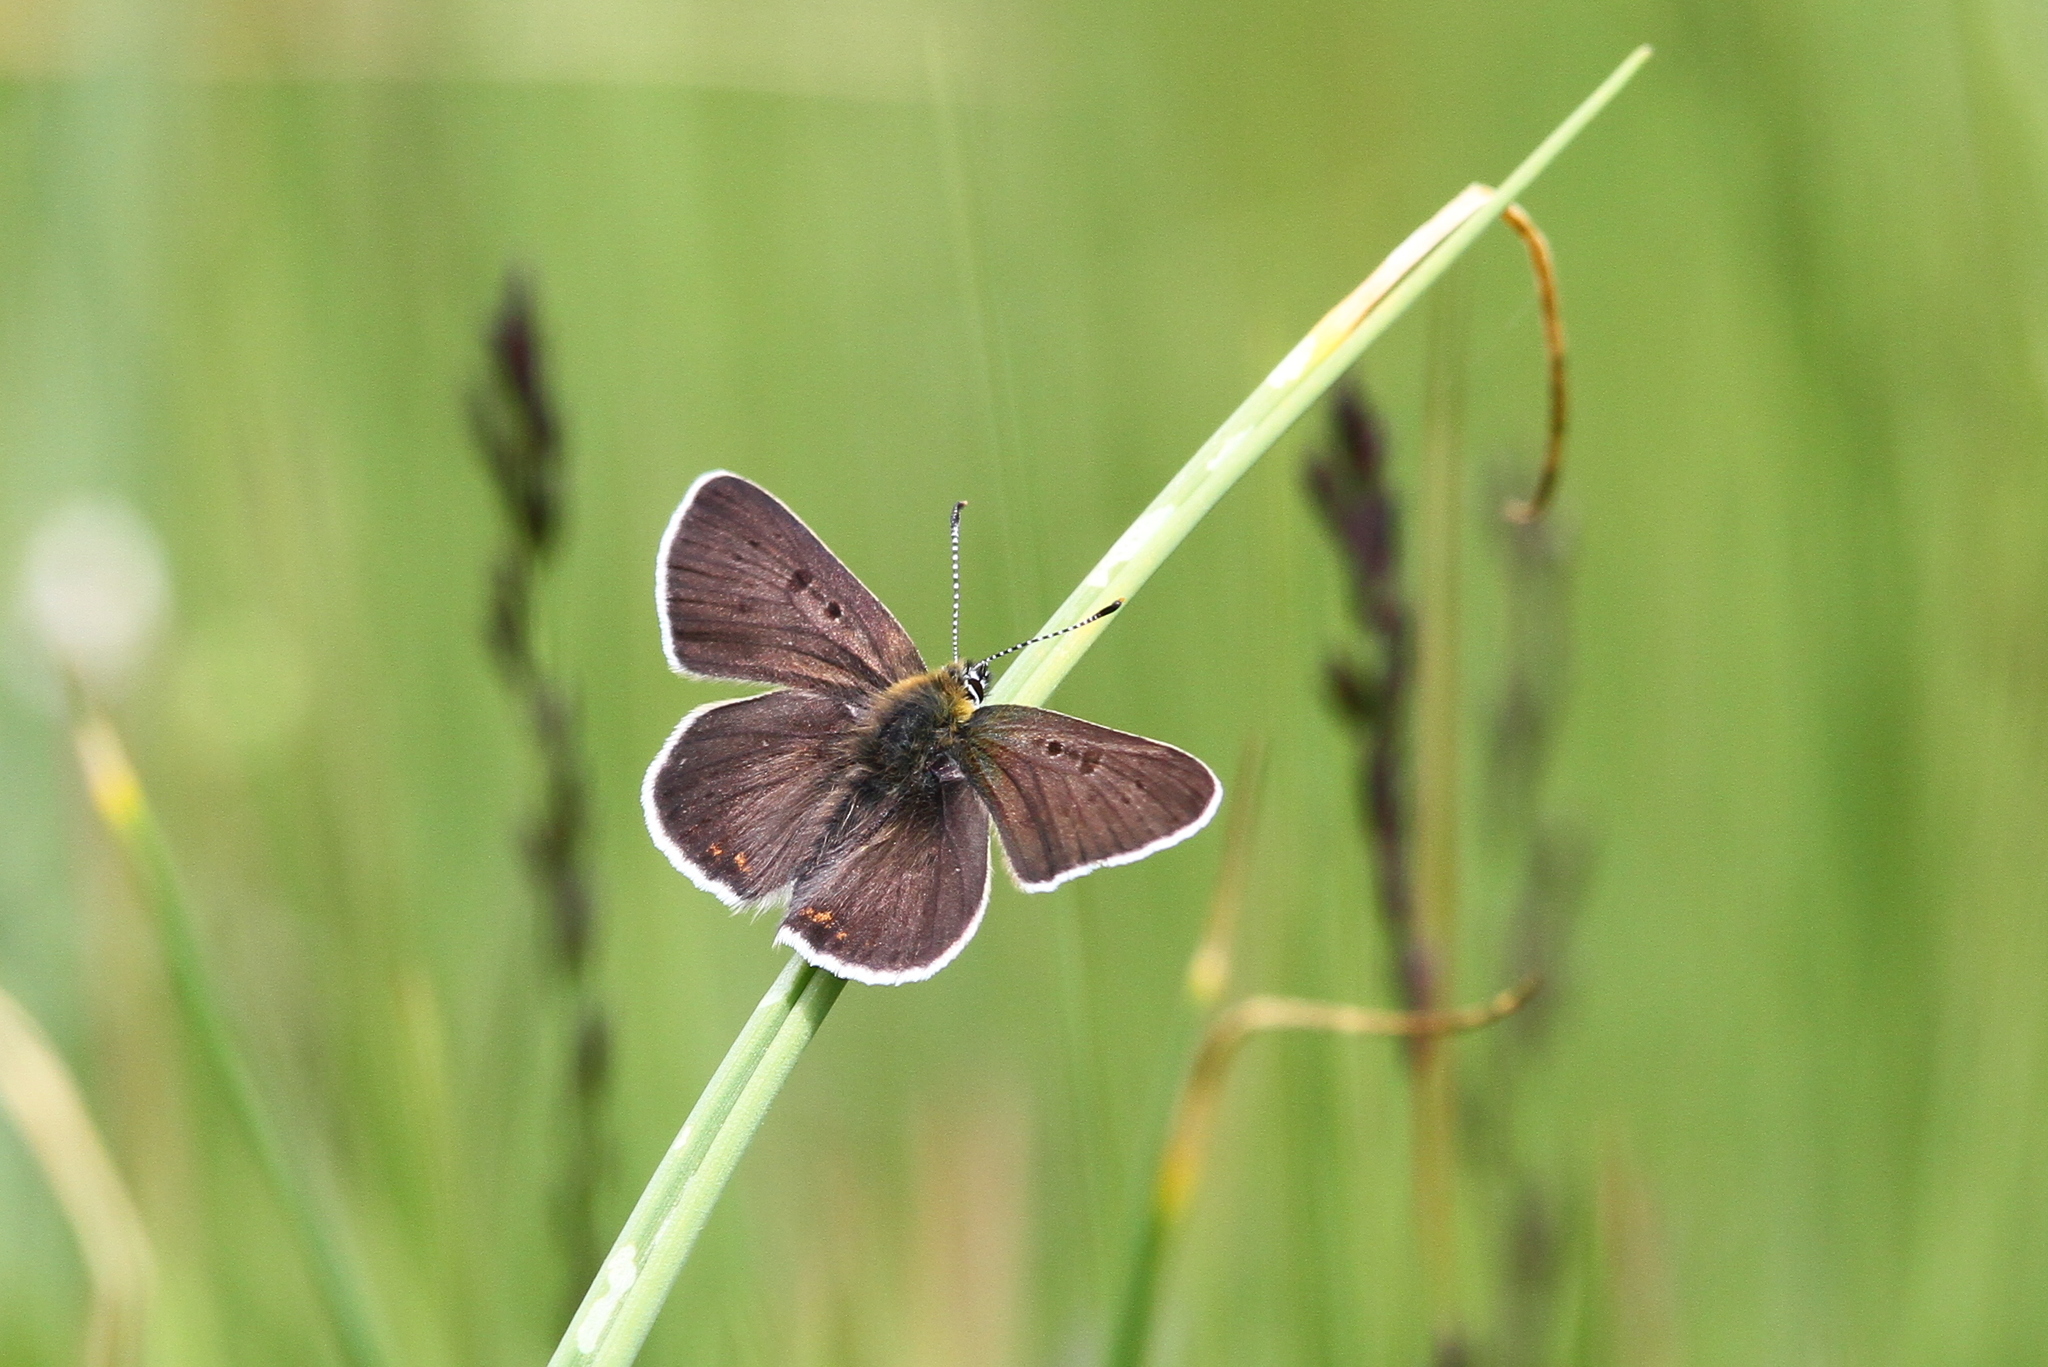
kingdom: Animalia
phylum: Arthropoda
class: Insecta
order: Lepidoptera
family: Lycaenidae
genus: Loweia
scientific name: Loweia tityrus
